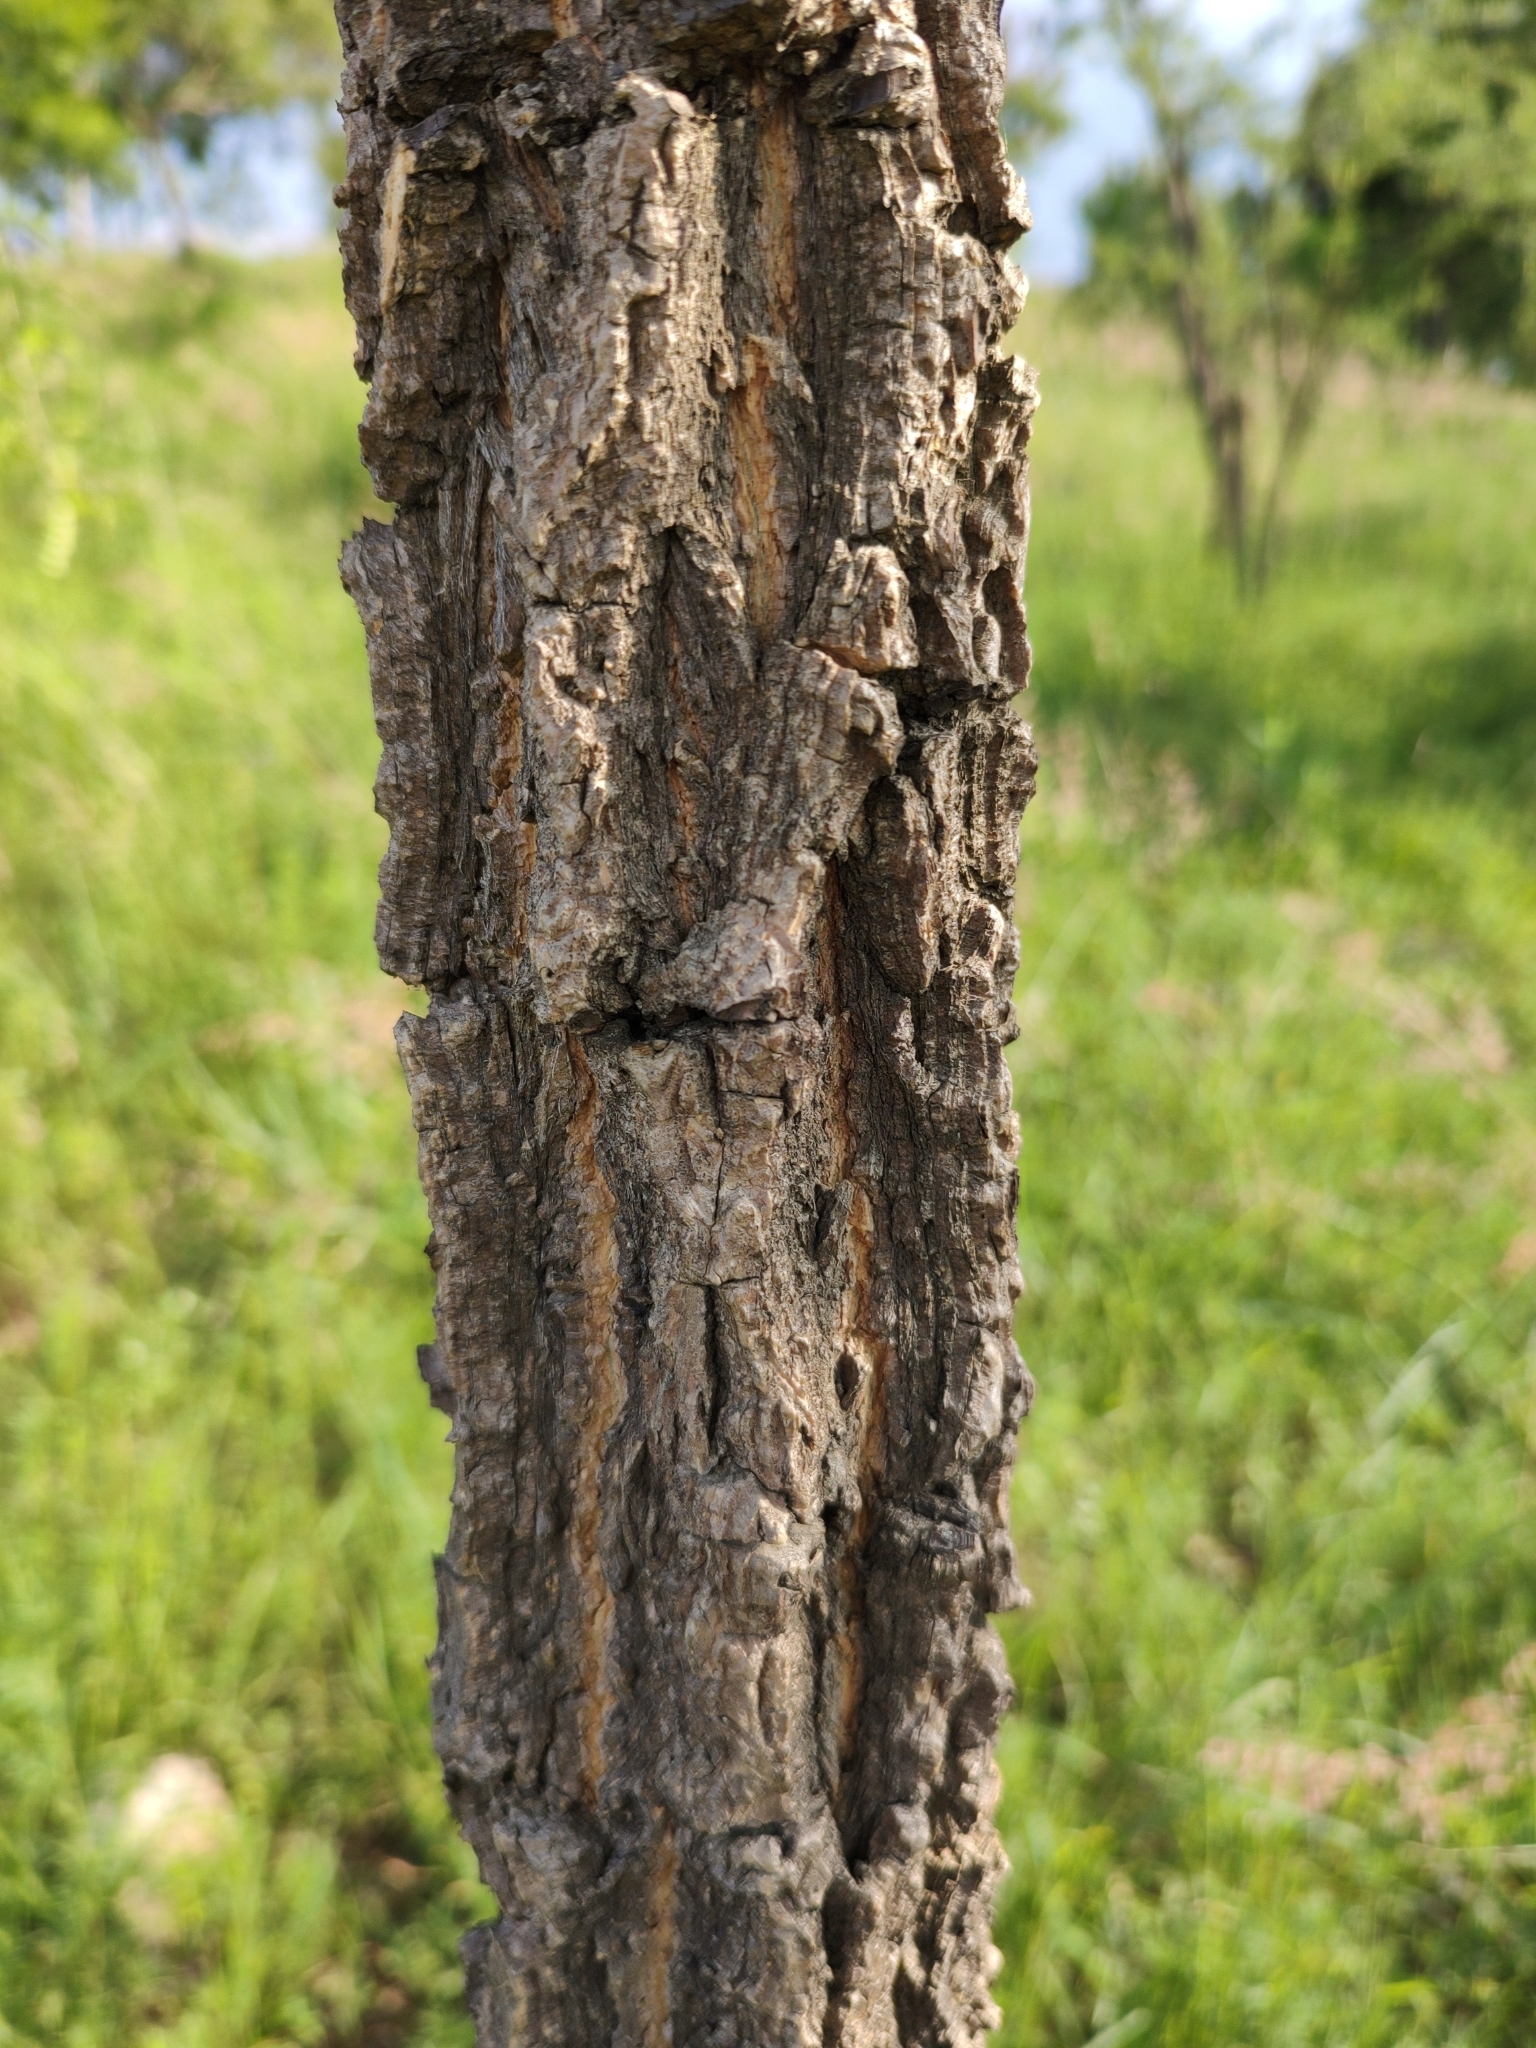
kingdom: Plantae
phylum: Tracheophyta
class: Magnoliopsida
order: Fabales
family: Fabaceae
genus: Diphysa
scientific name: Diphysa suberosa
